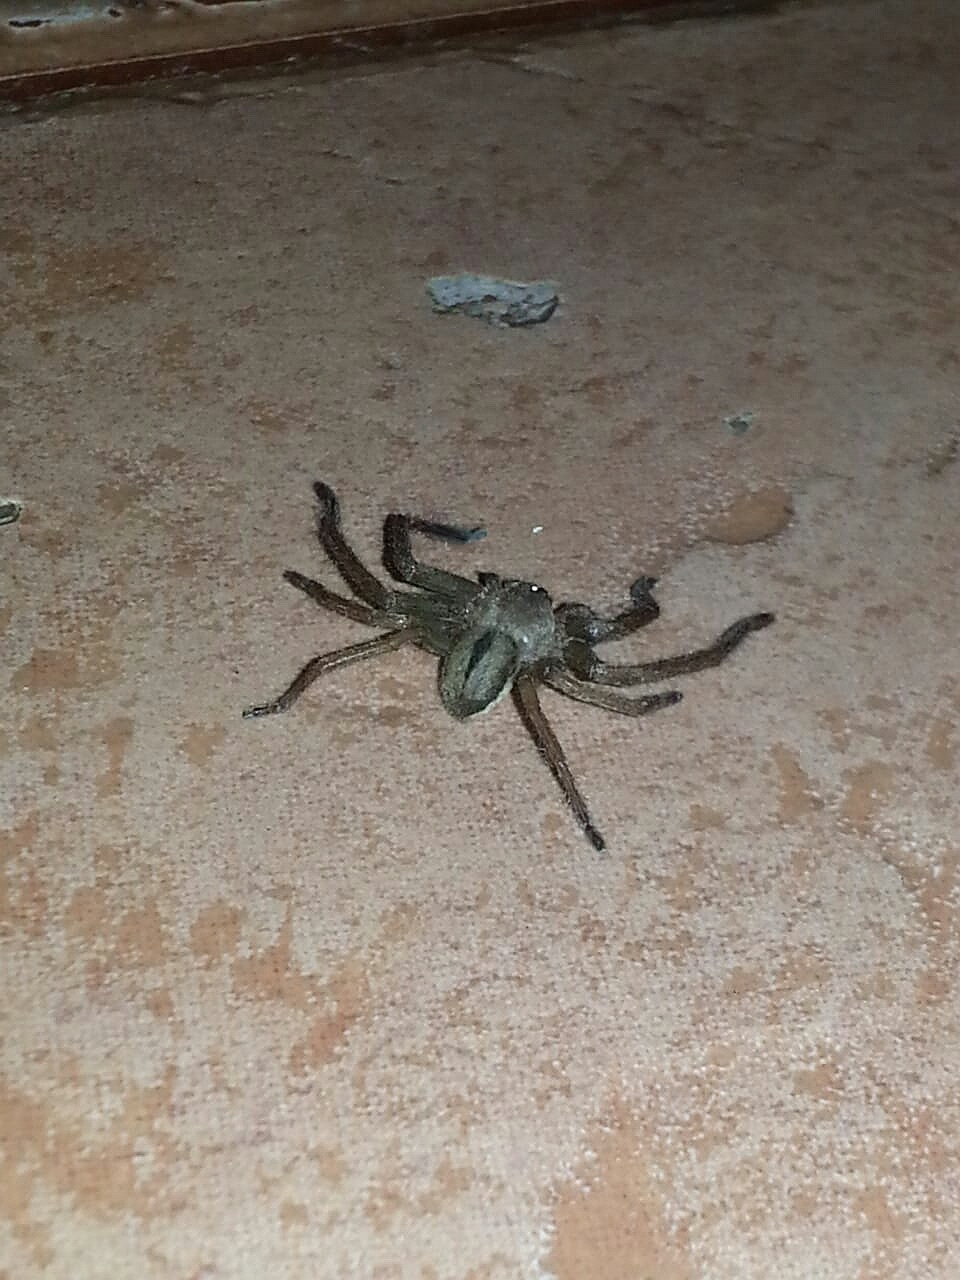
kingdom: Animalia
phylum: Arthropoda
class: Arachnida
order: Araneae
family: Sparassidae
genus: Polybetes
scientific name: Polybetes pallidus
